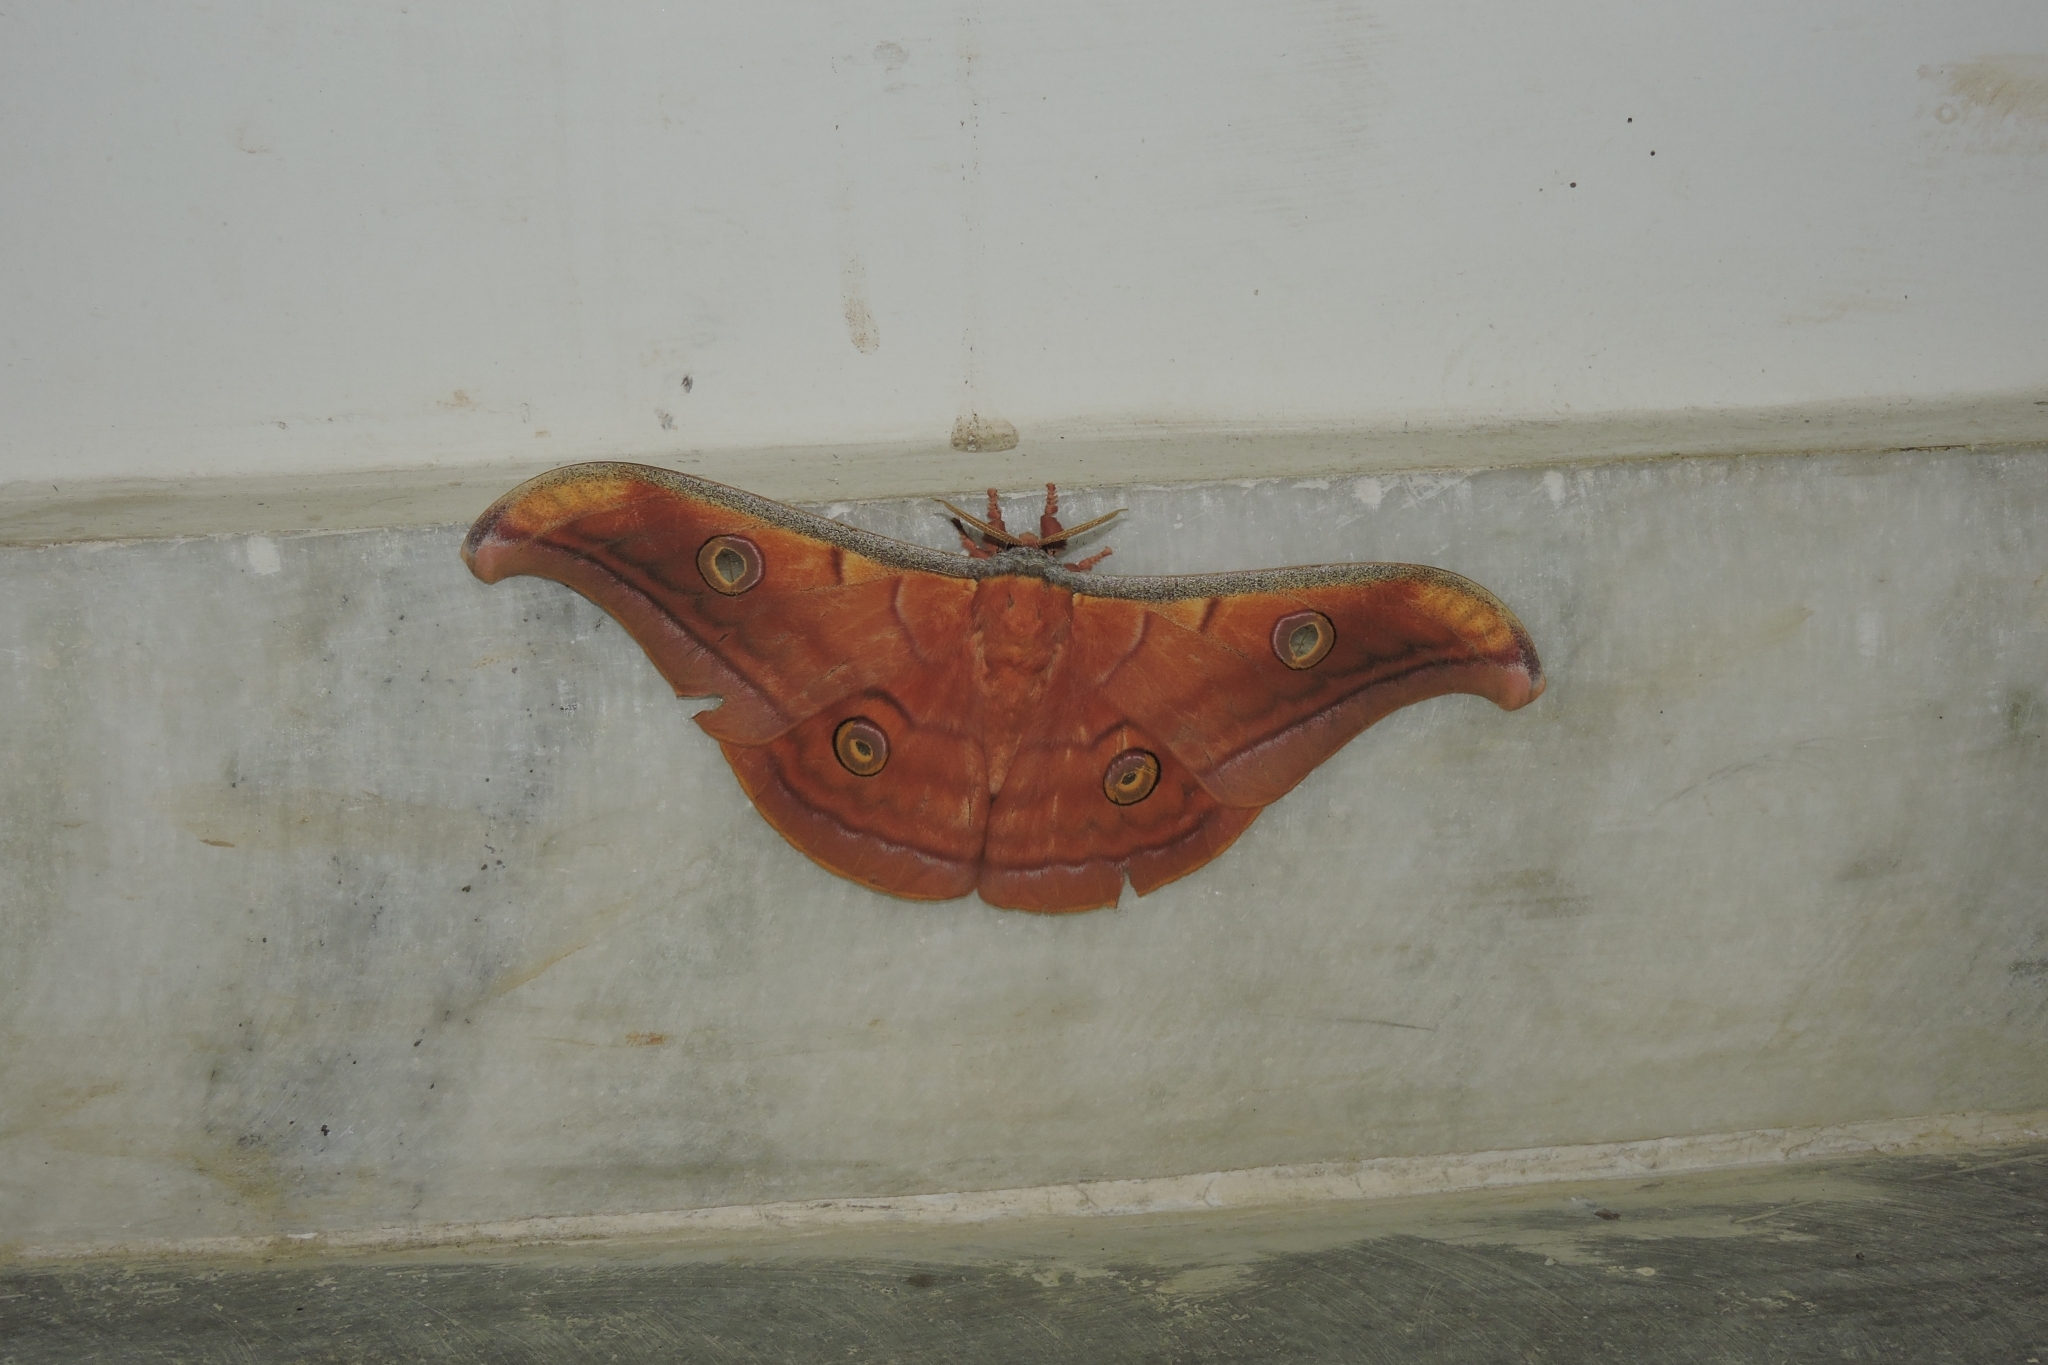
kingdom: Animalia
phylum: Arthropoda
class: Insecta
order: Lepidoptera
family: Saturniidae
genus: Antheraea
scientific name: Antheraea paphia
